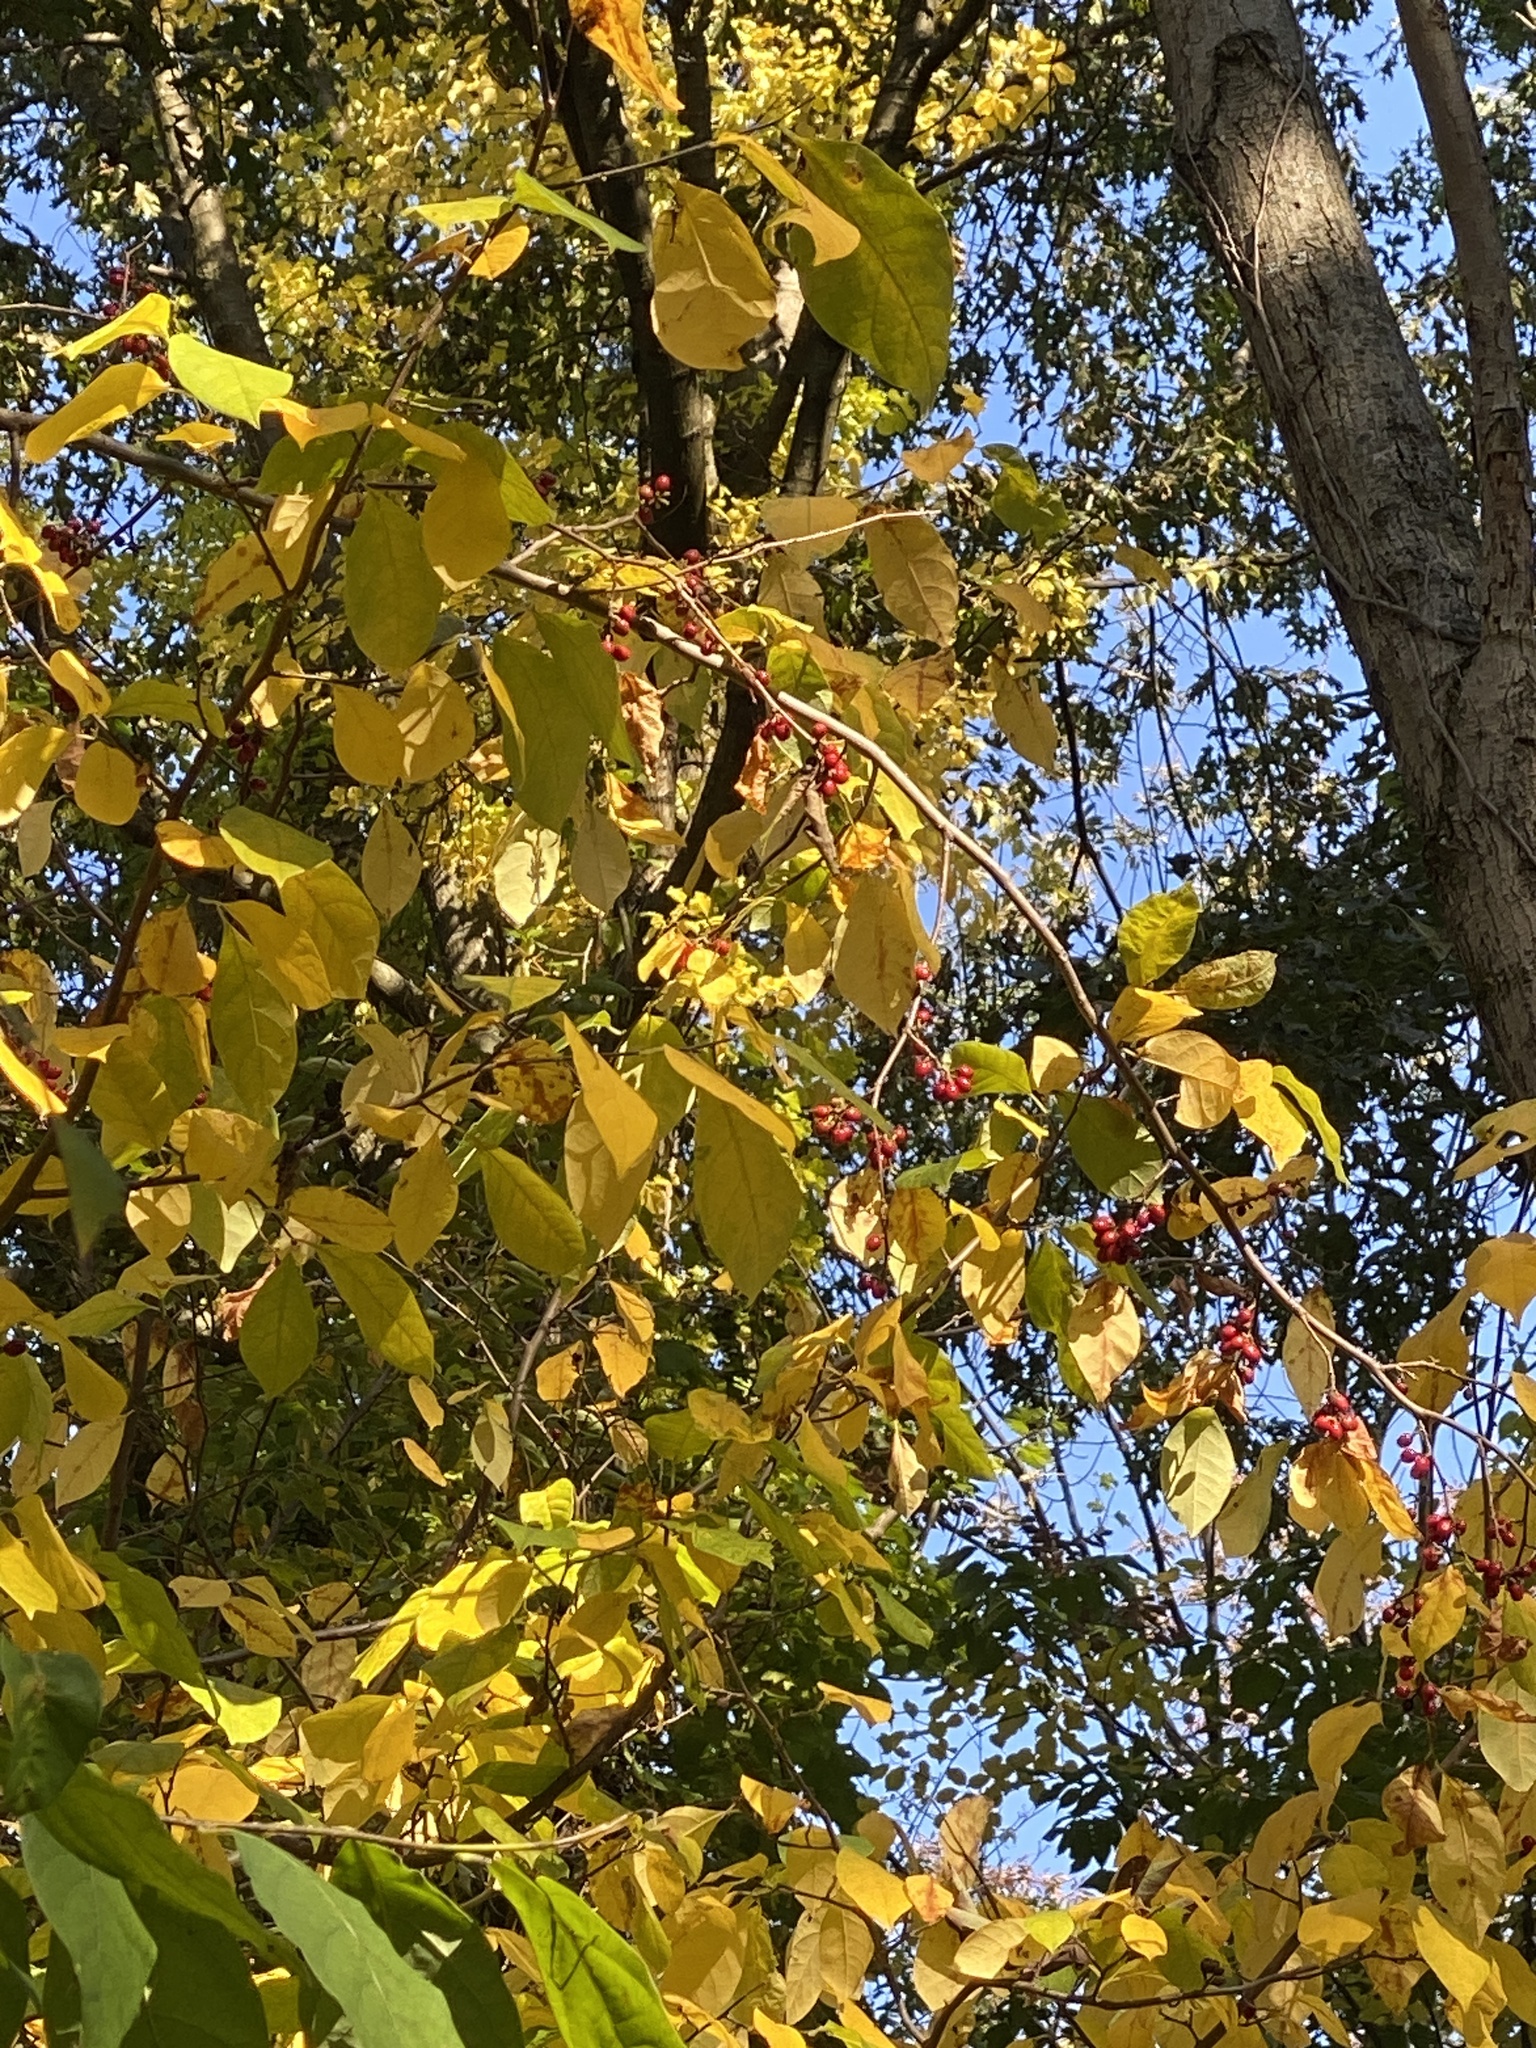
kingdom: Plantae
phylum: Tracheophyta
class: Magnoliopsida
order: Laurales
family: Lauraceae
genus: Lindera
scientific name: Lindera benzoin
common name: Spicebush
